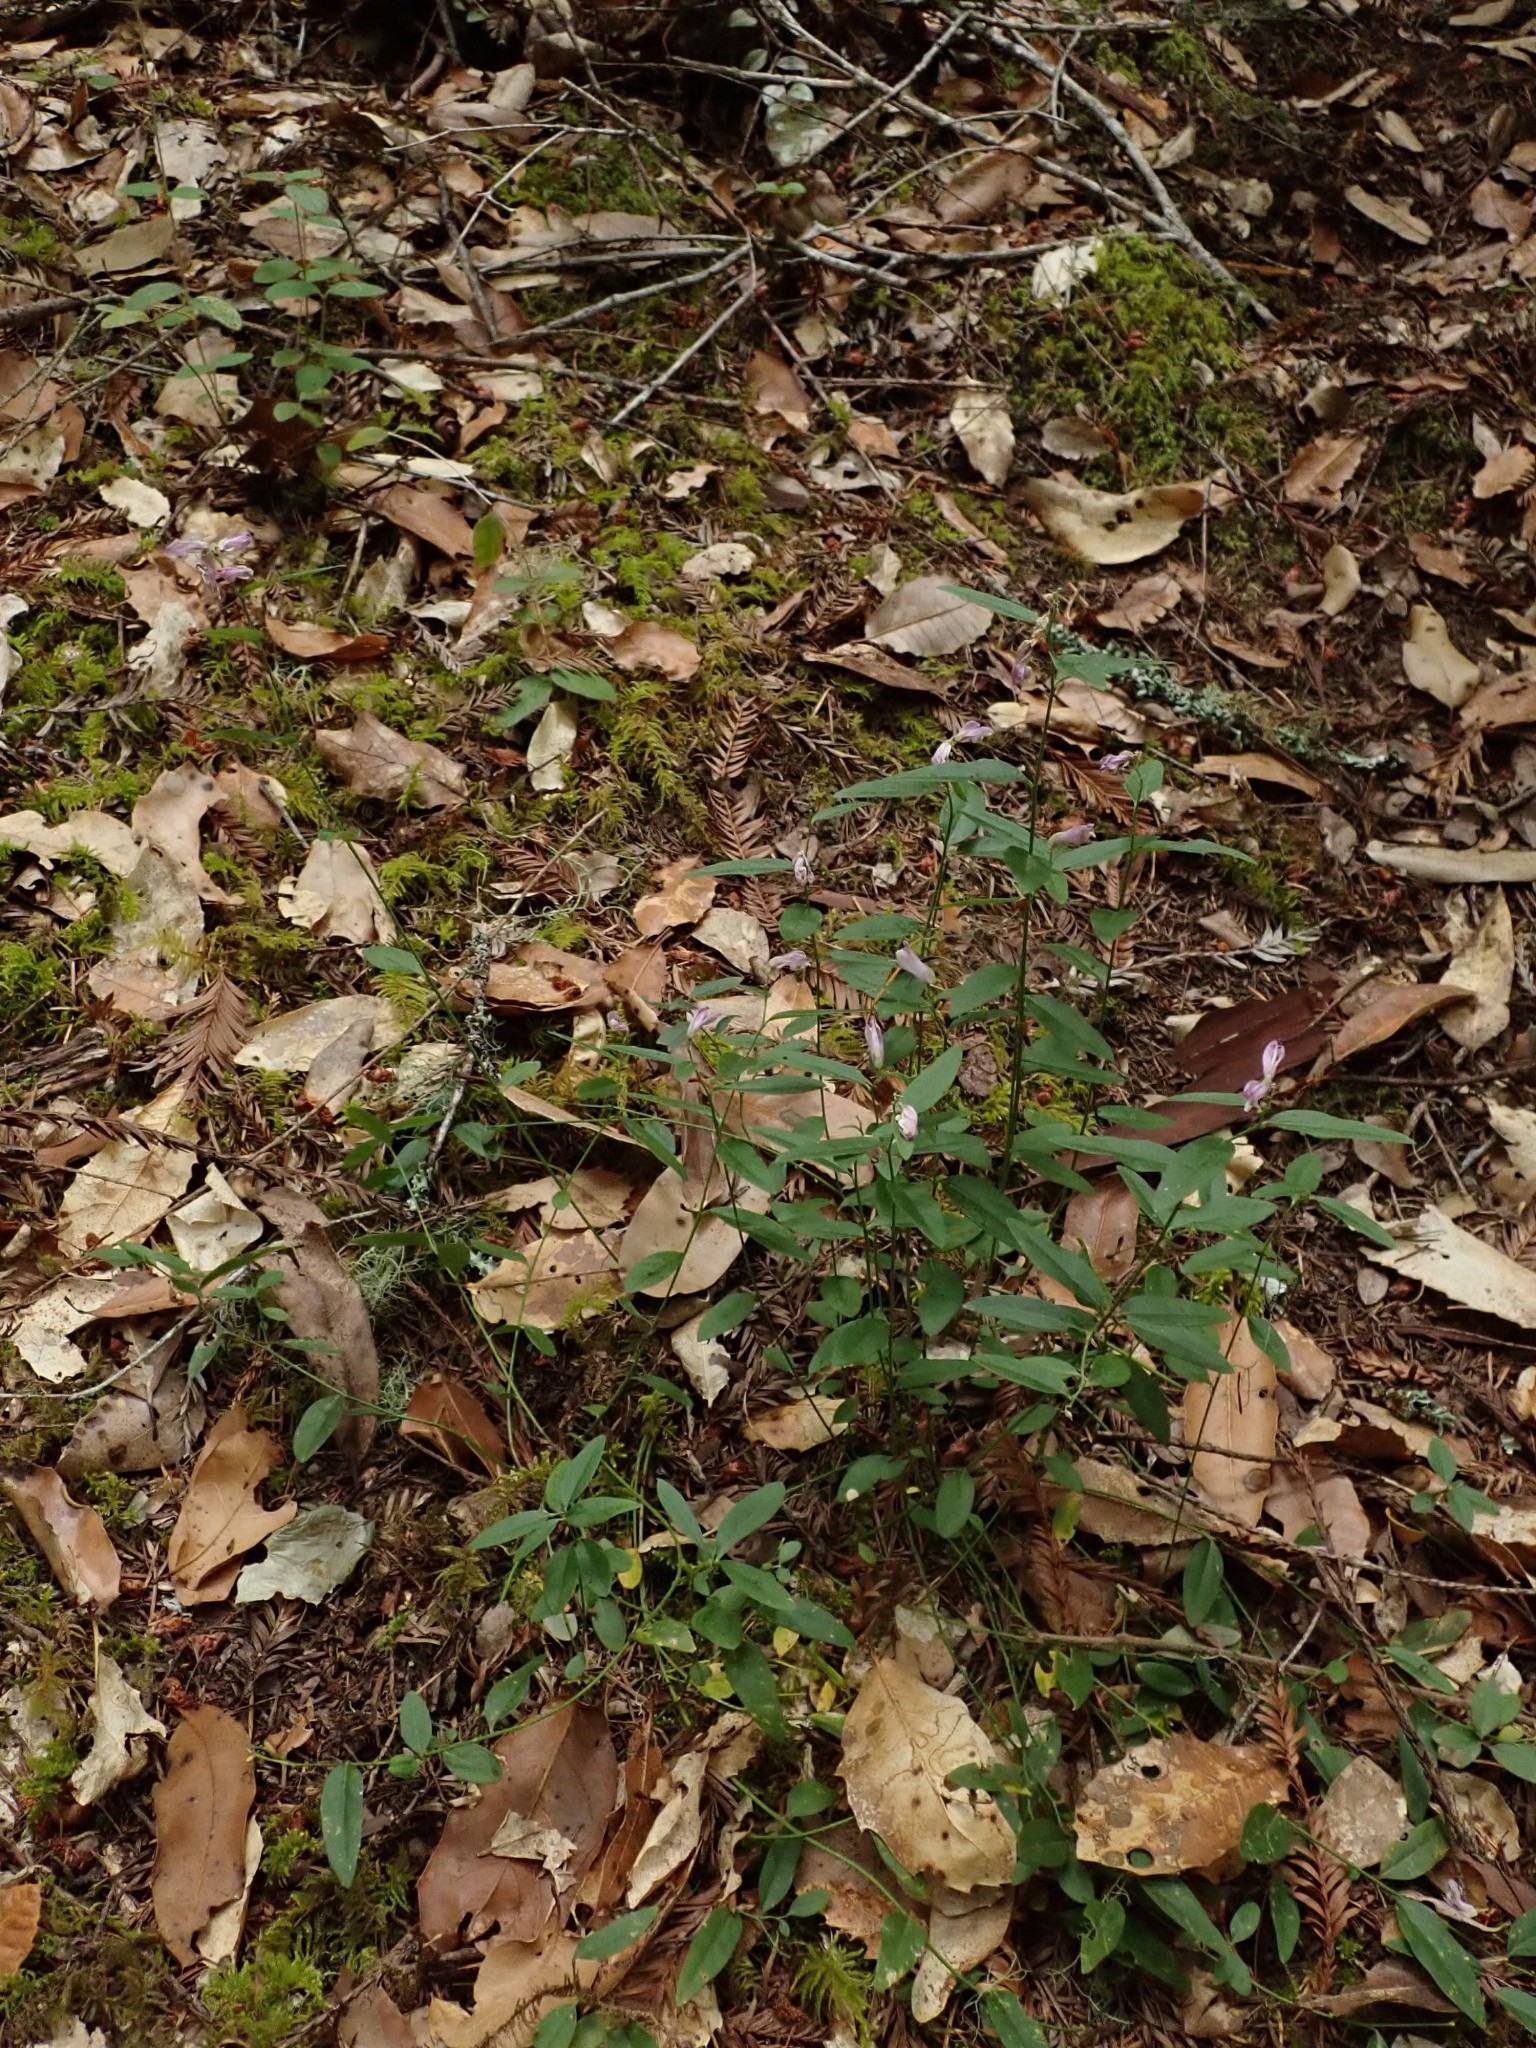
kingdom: Plantae
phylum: Tracheophyta
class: Magnoliopsida
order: Fabales
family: Polygalaceae
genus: Rhinotropis
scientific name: Rhinotropis californica
